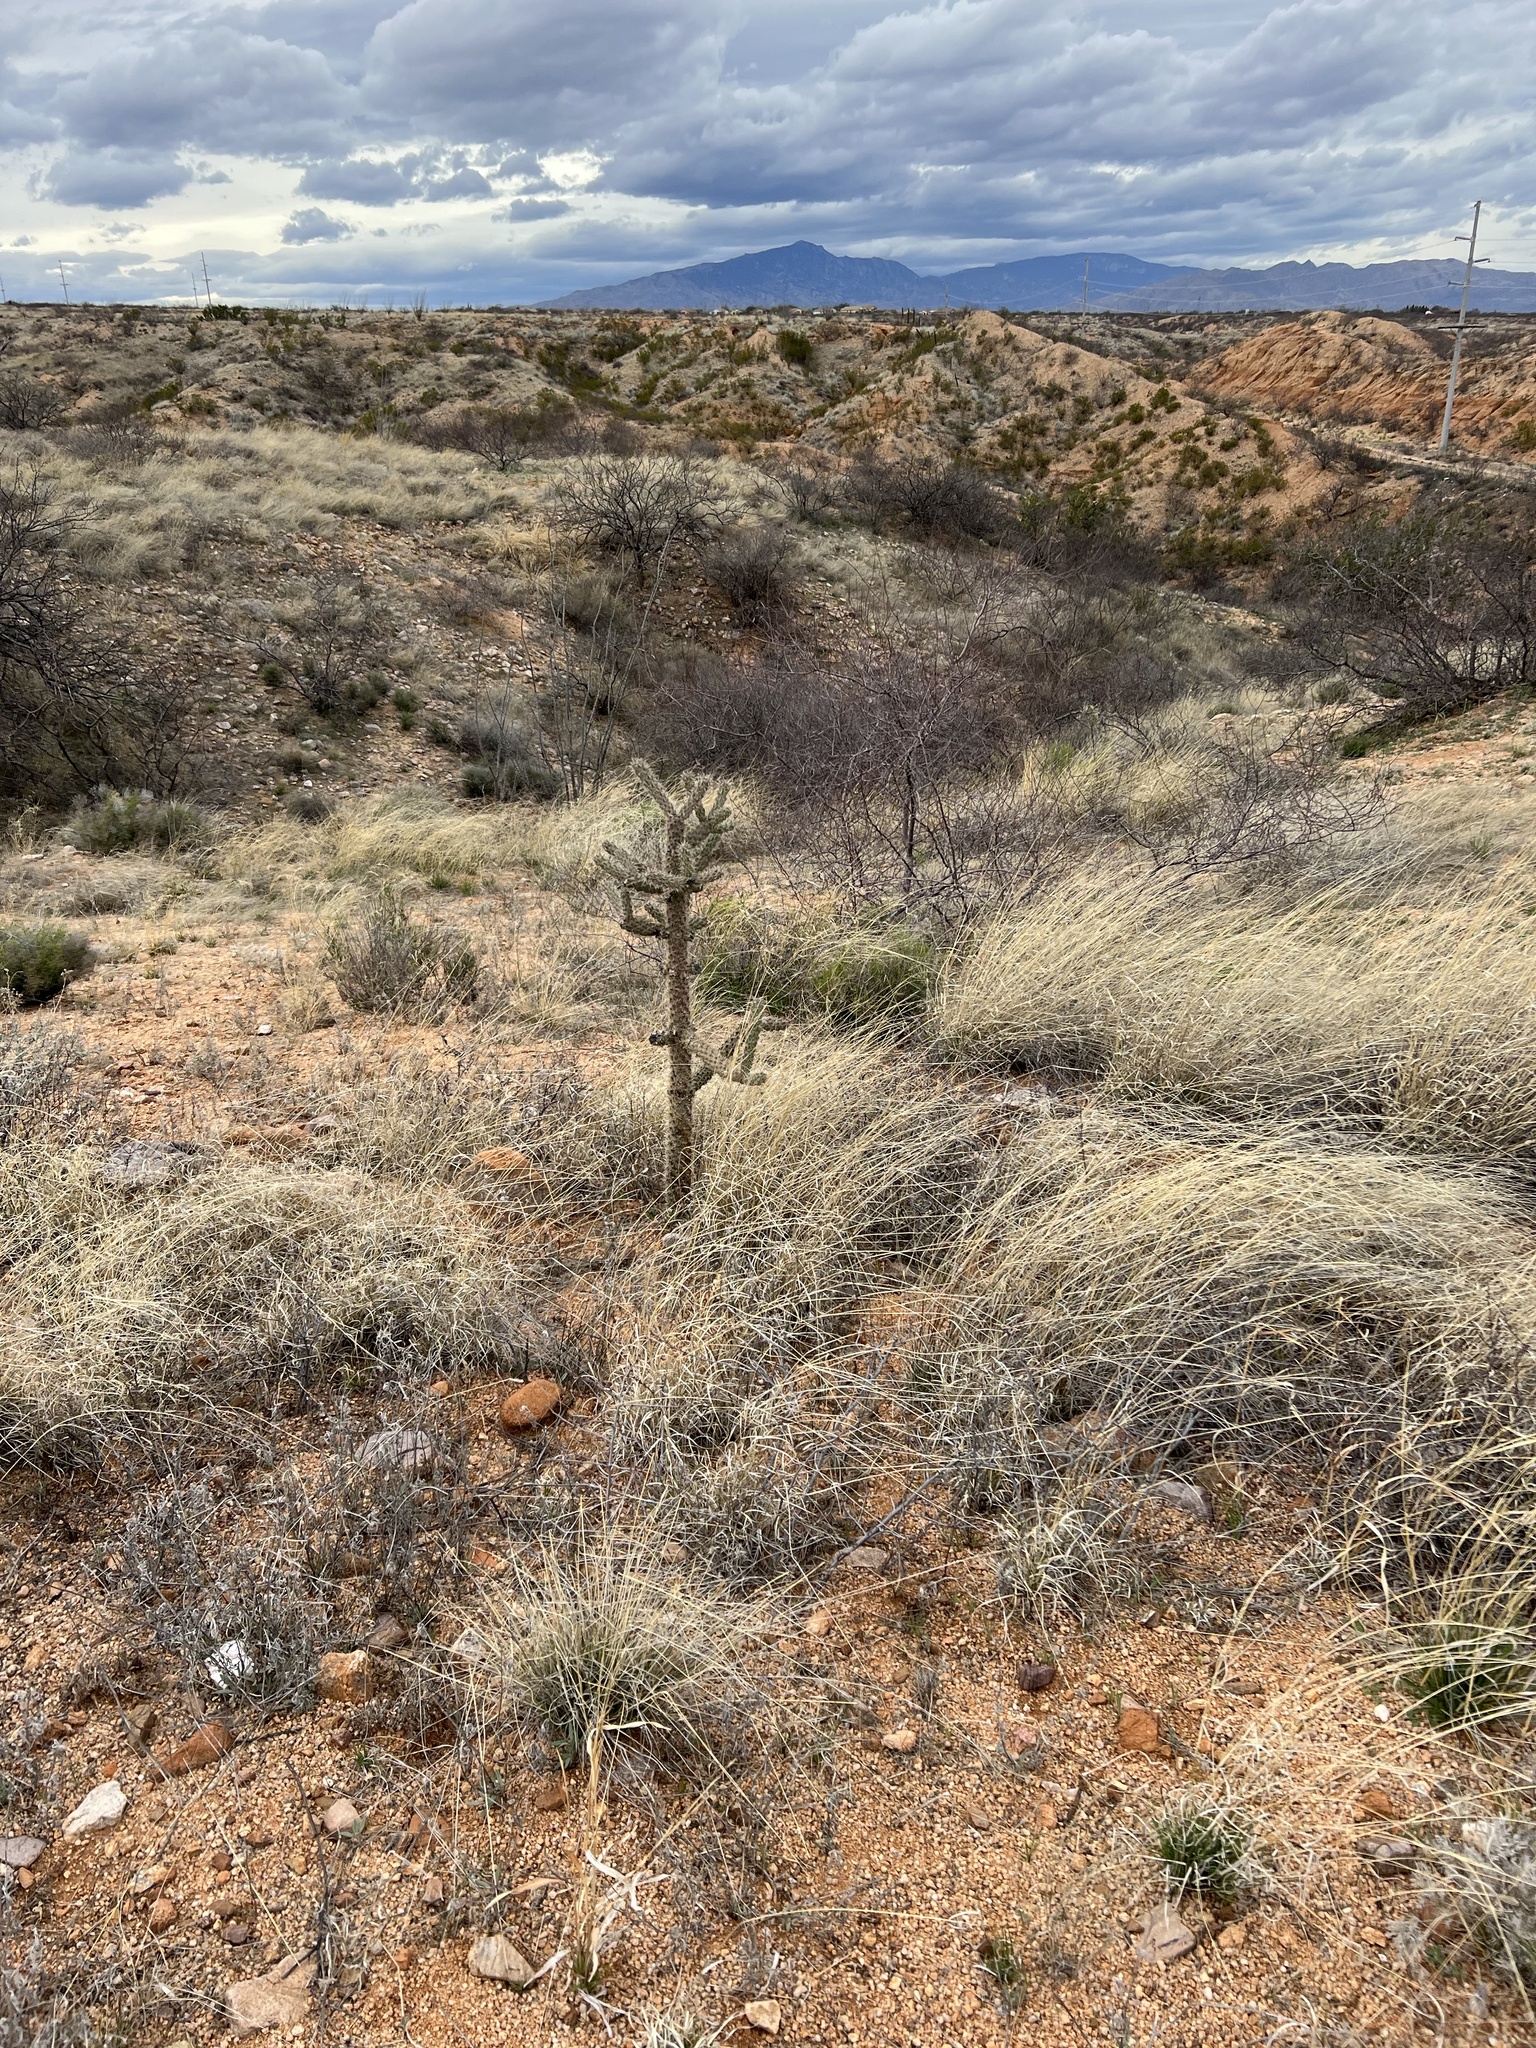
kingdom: Plantae
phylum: Tracheophyta
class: Magnoliopsida
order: Caryophyllales
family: Cactaceae
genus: Cylindropuntia
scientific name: Cylindropuntia imbricata
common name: Candelabrum cactus
